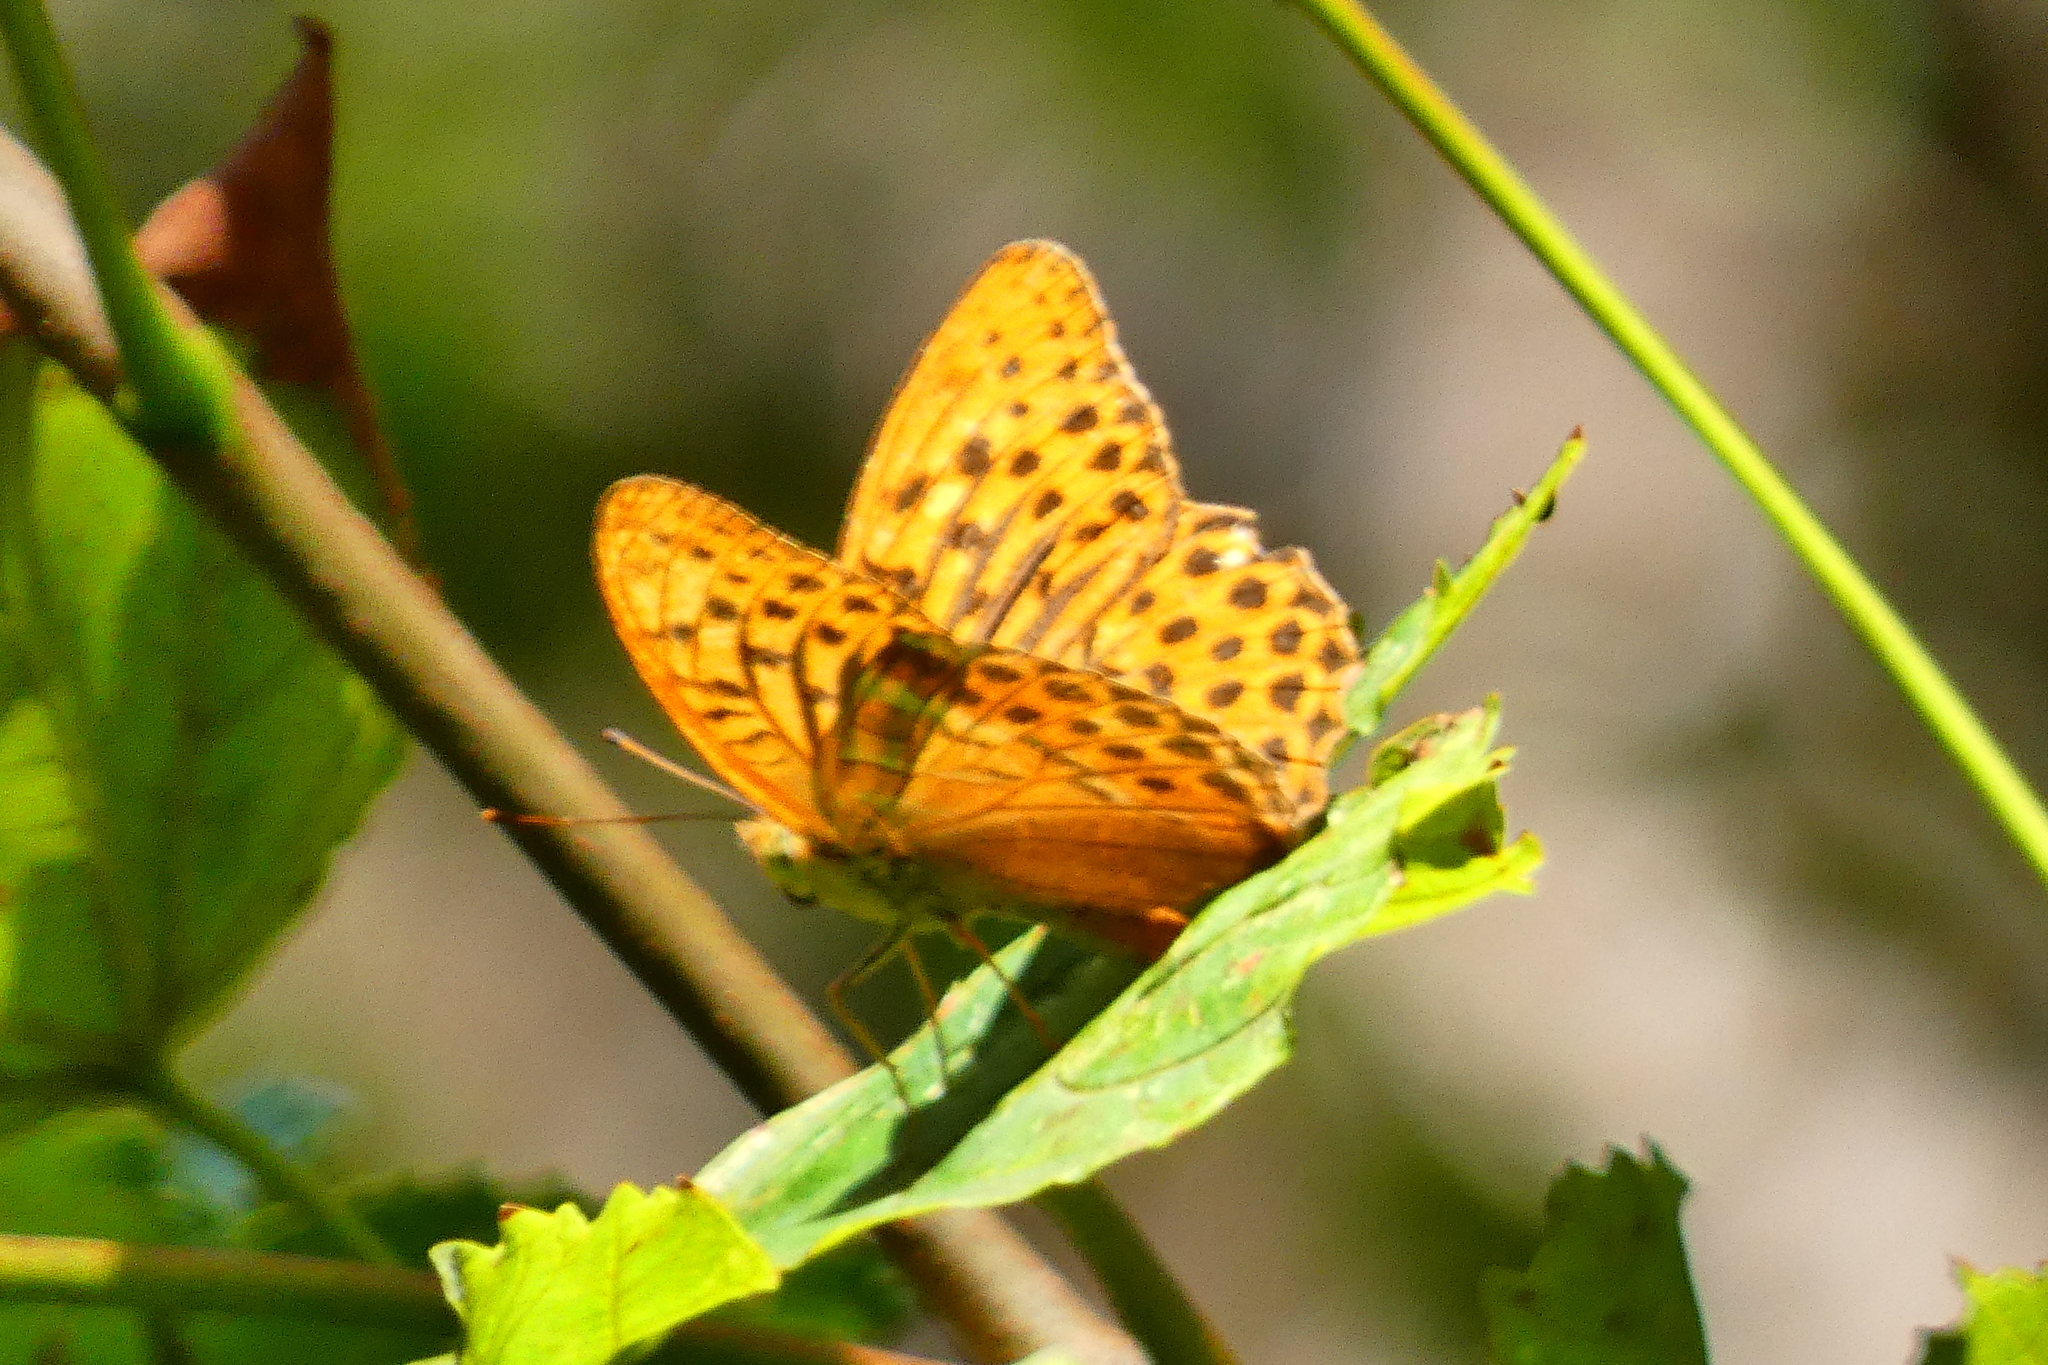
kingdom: Animalia
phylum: Arthropoda
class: Insecta
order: Lepidoptera
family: Nymphalidae
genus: Argynnis
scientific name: Argynnis paphia
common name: Silver-washed fritillary
